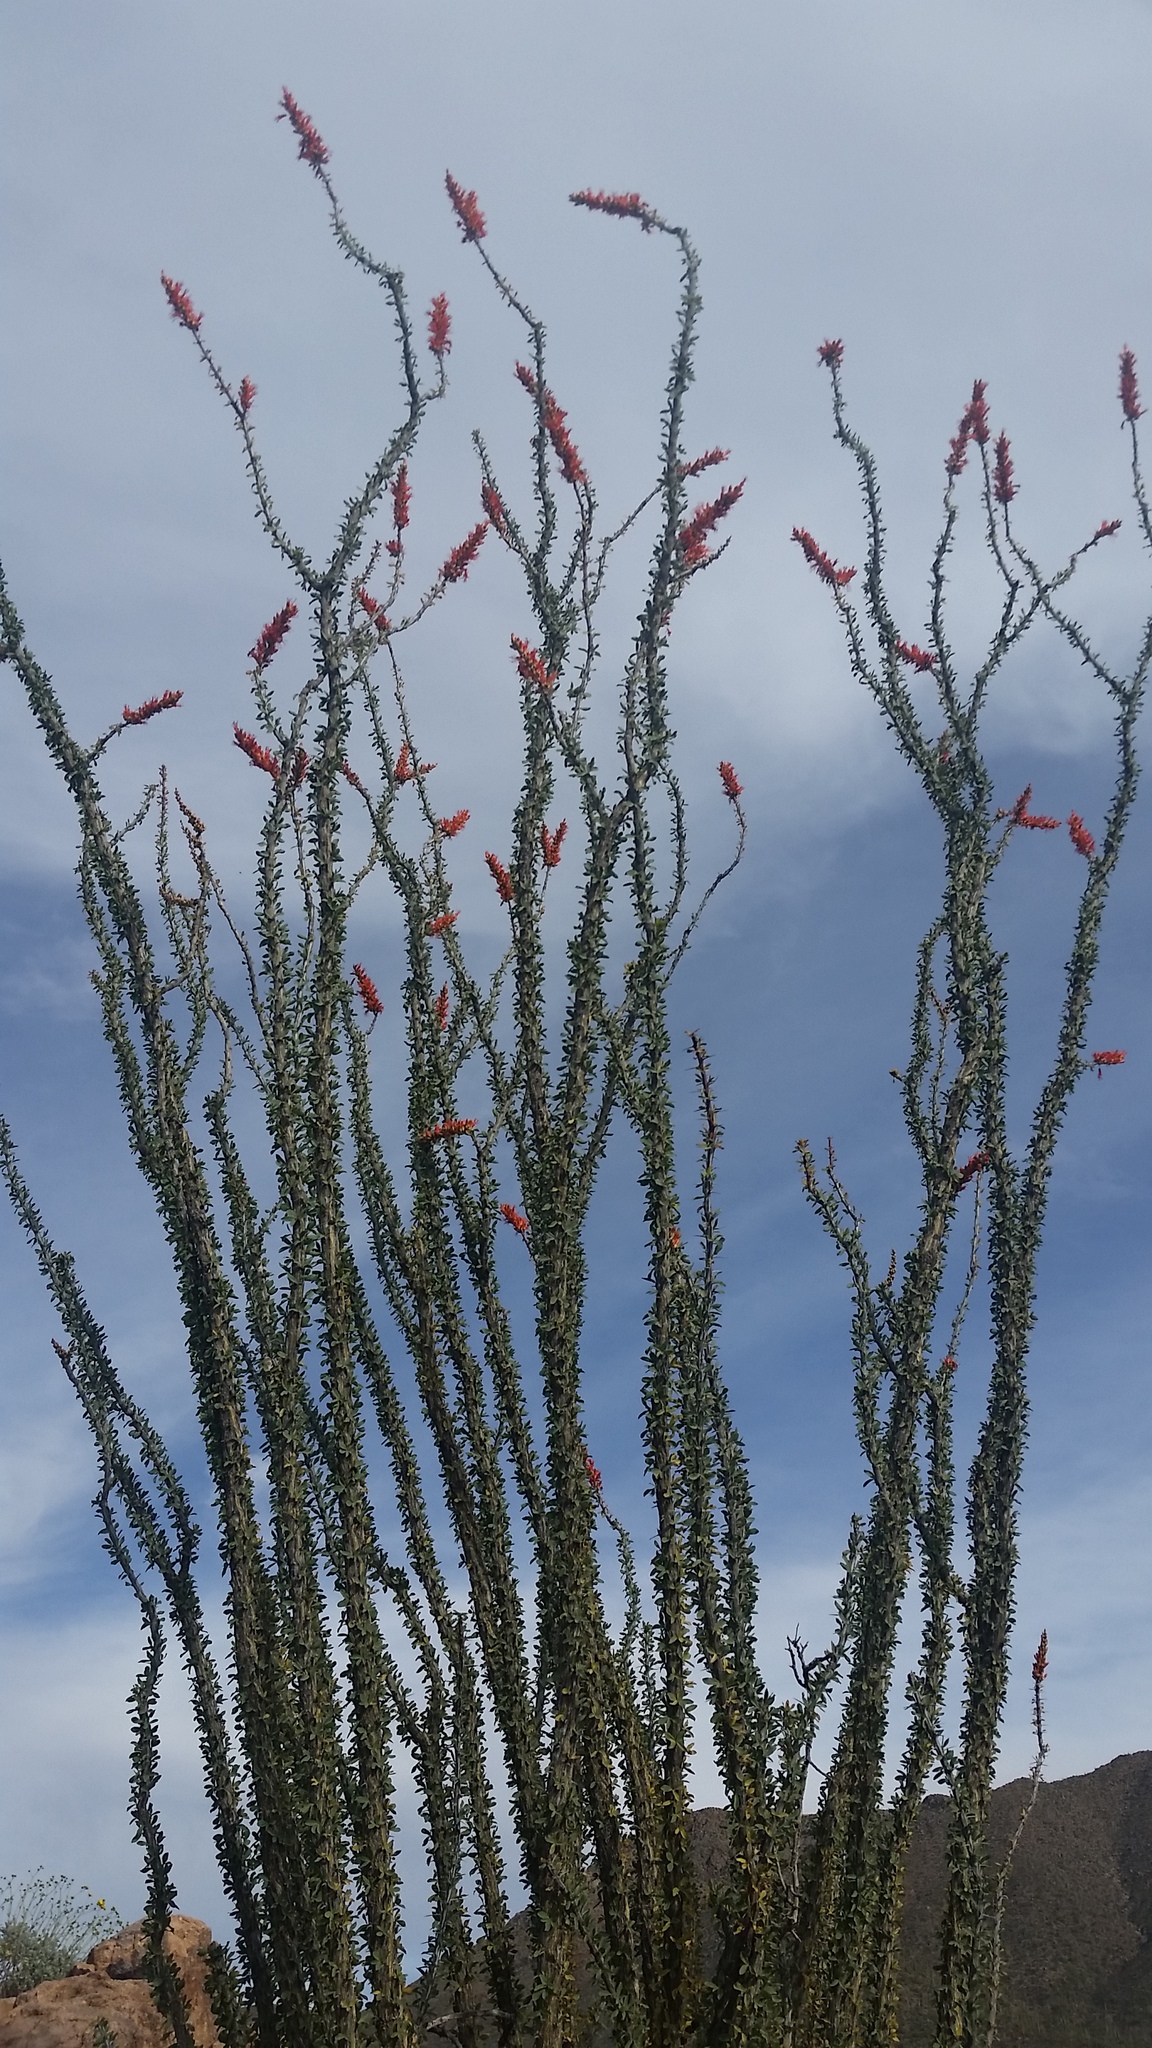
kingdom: Plantae
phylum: Tracheophyta
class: Magnoliopsida
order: Ericales
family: Fouquieriaceae
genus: Fouquieria
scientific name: Fouquieria splendens
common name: Vine-cactus
